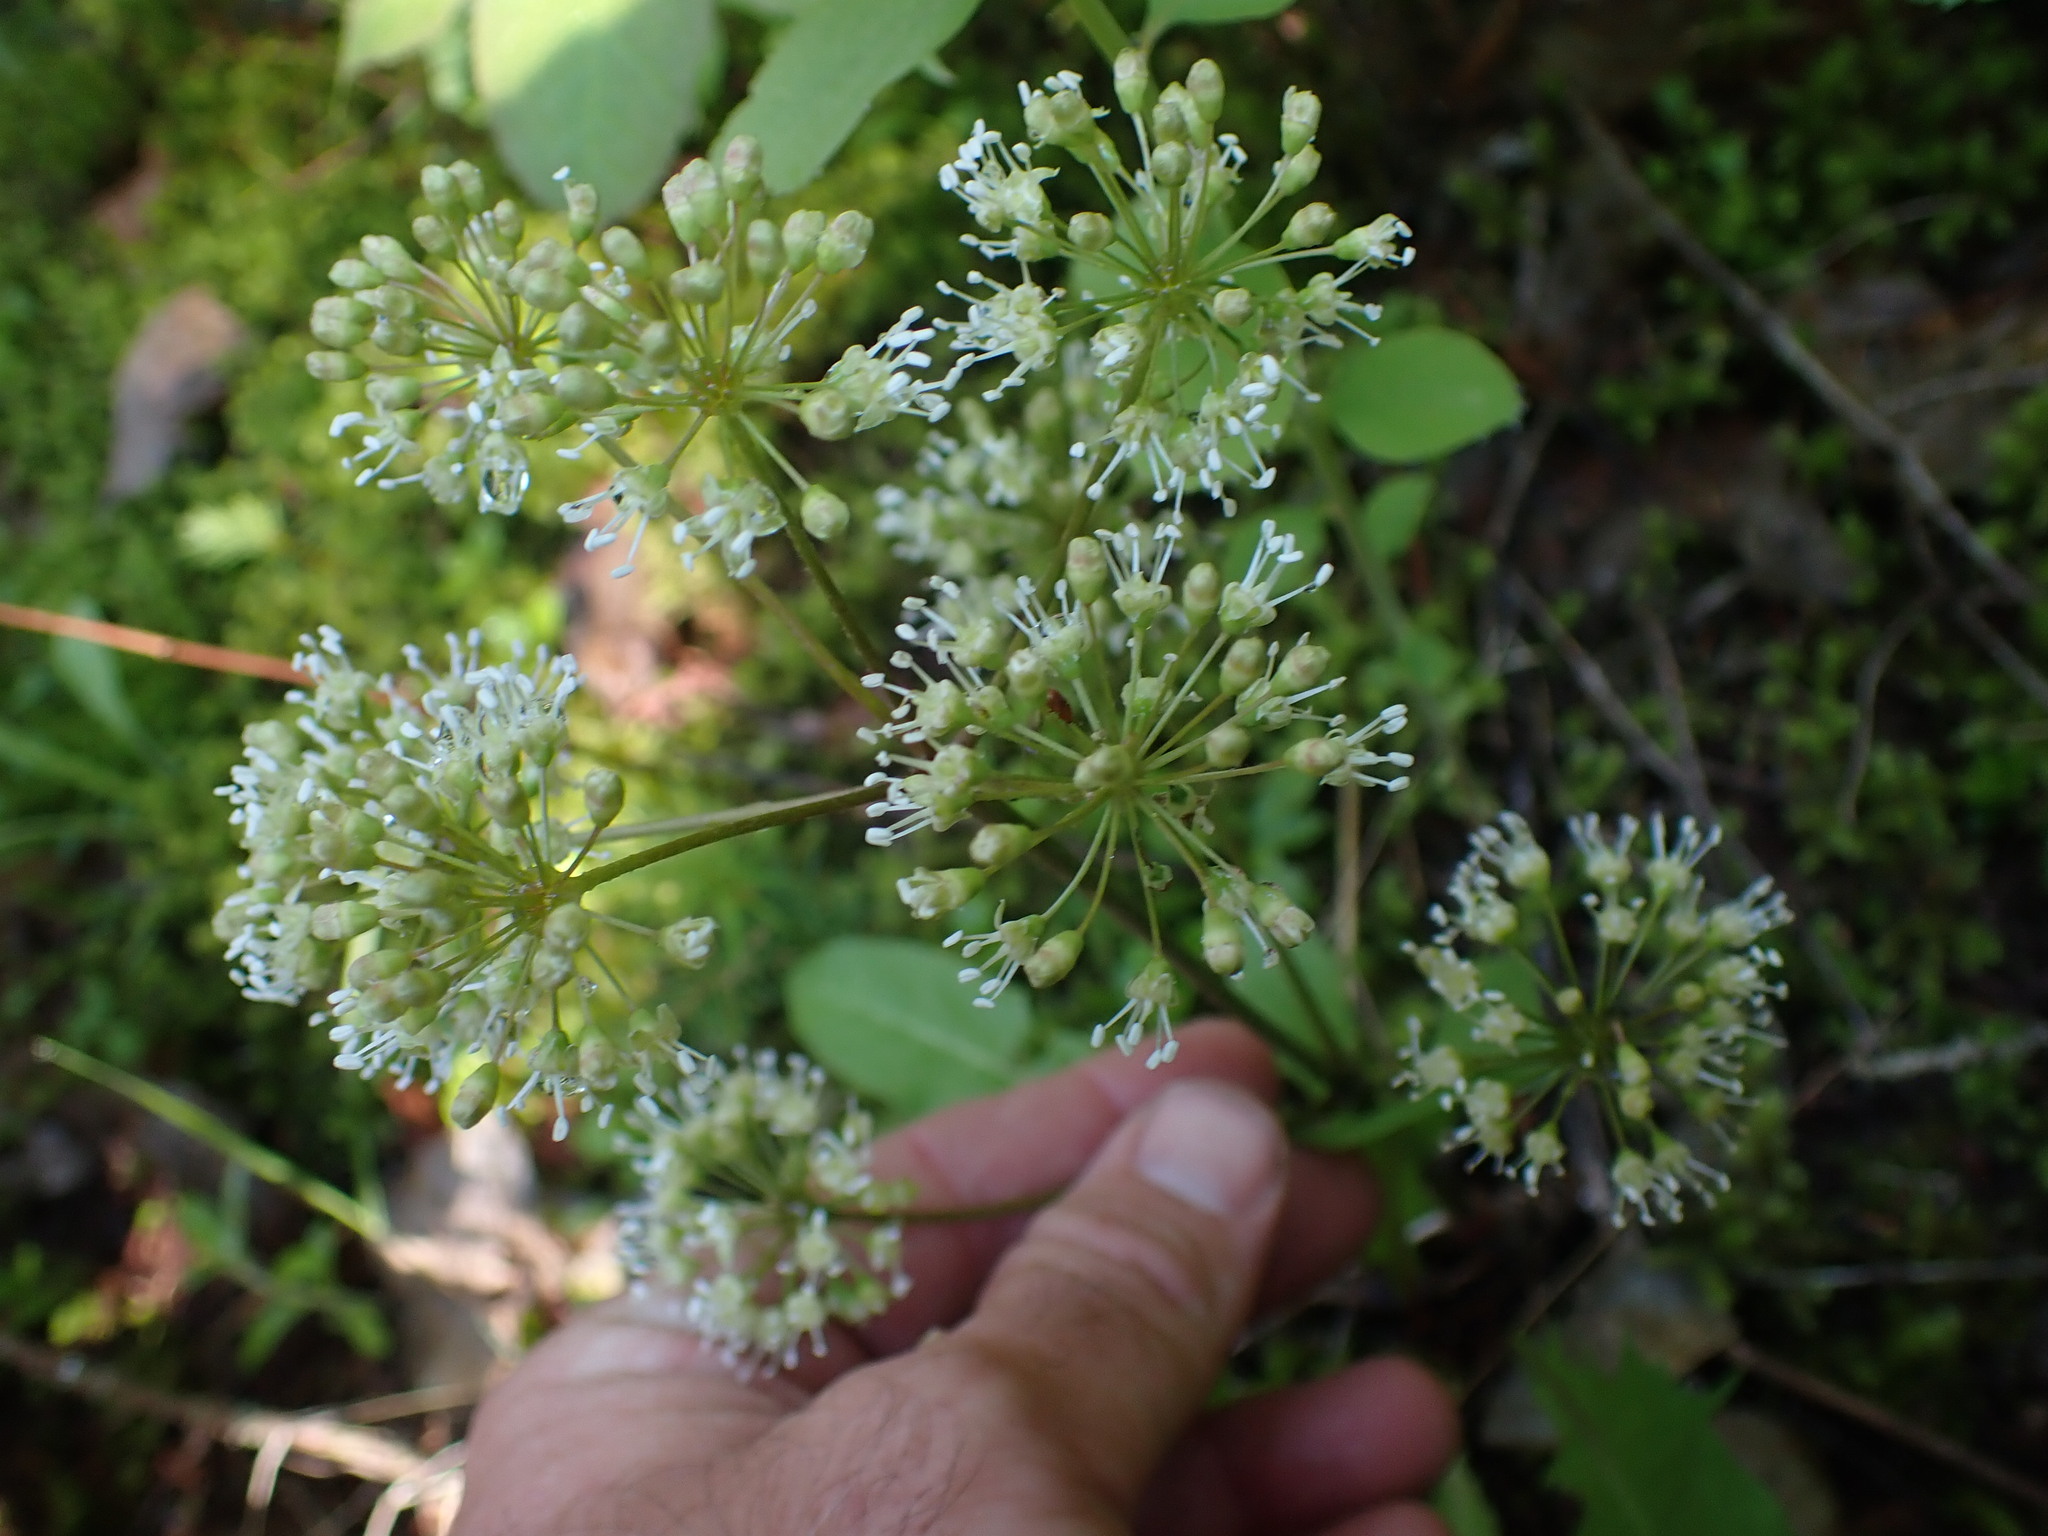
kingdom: Plantae
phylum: Tracheophyta
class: Magnoliopsida
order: Apiales
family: Araliaceae
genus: Aralia
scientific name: Aralia nudicaulis
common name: Wild sarsaparilla
